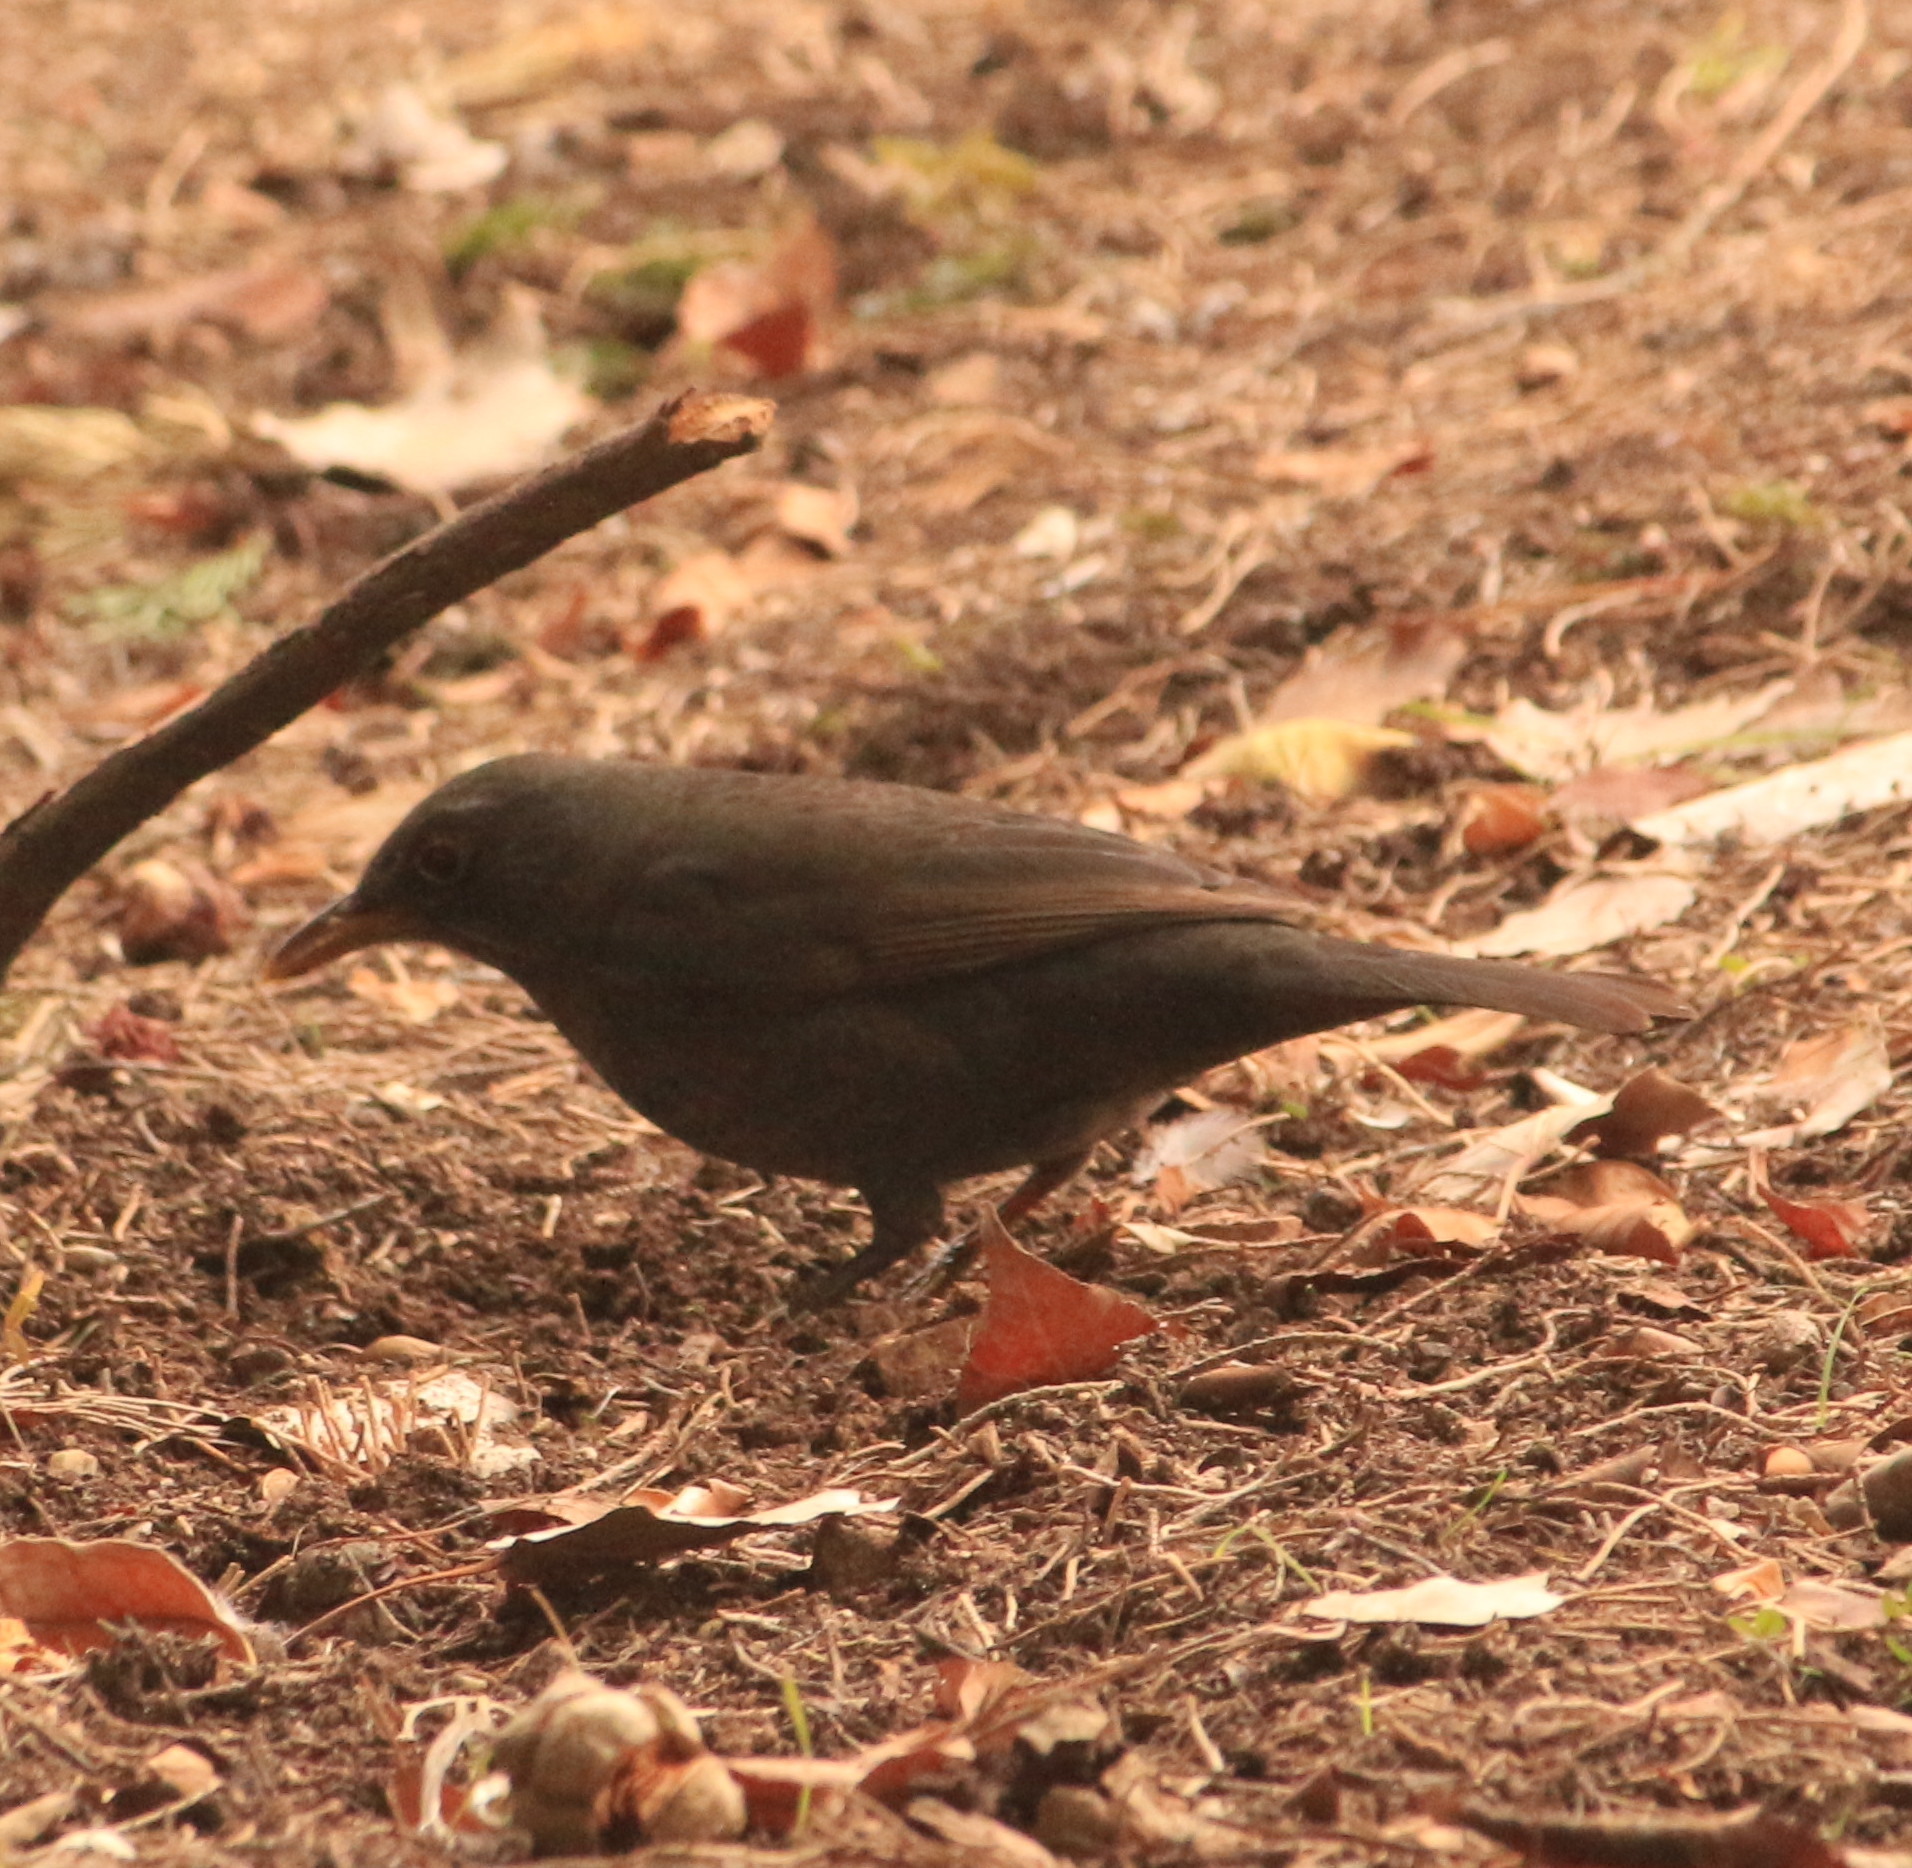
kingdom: Animalia
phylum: Chordata
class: Aves
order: Passeriformes
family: Turdidae
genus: Turdus
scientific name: Turdus merula
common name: Common blackbird
